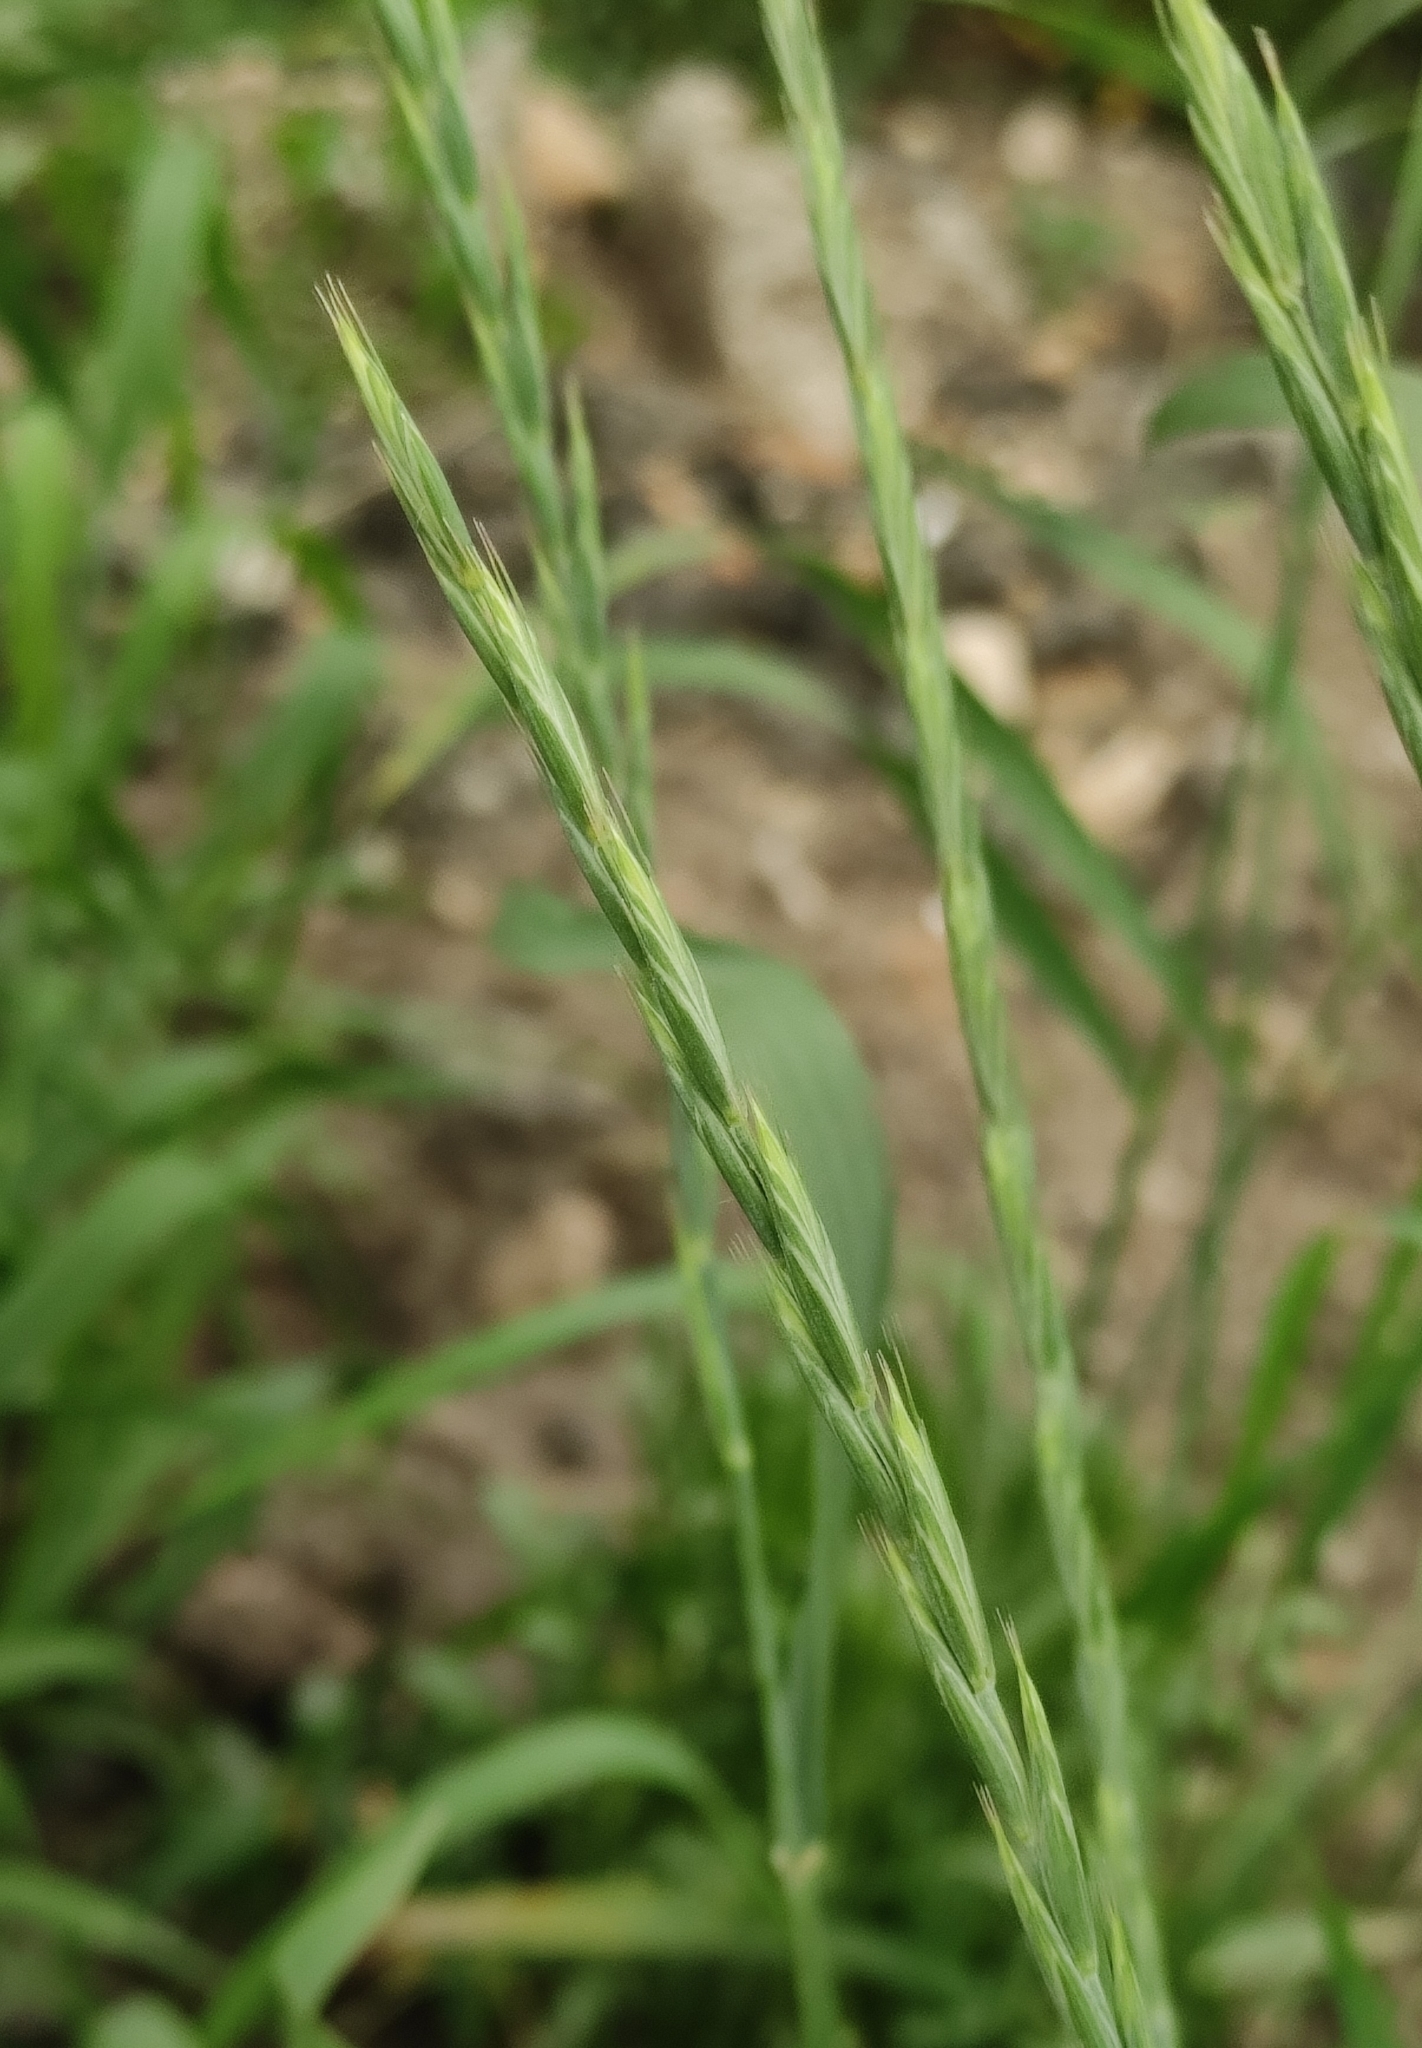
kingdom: Plantae
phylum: Tracheophyta
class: Liliopsida
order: Poales
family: Poaceae
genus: Elymus
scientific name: Elymus repens
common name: Quackgrass
